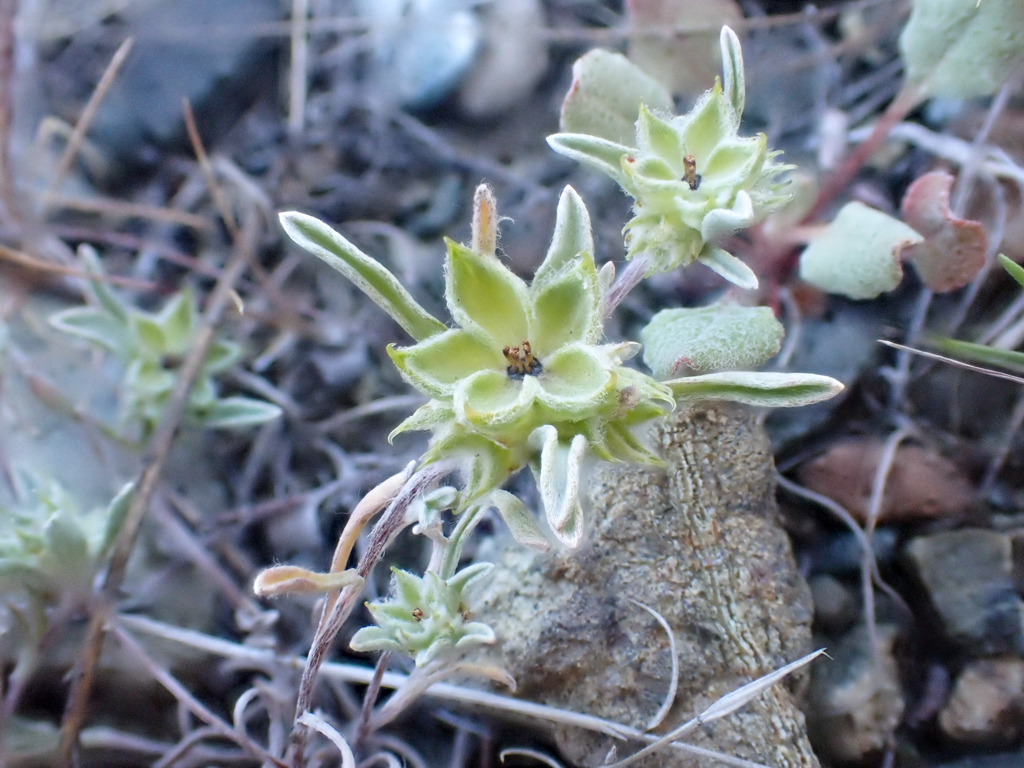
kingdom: Plantae
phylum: Tracheophyta
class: Magnoliopsida
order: Asterales
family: Asteraceae
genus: Ancistrocarphus
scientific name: Ancistrocarphus filagineus
